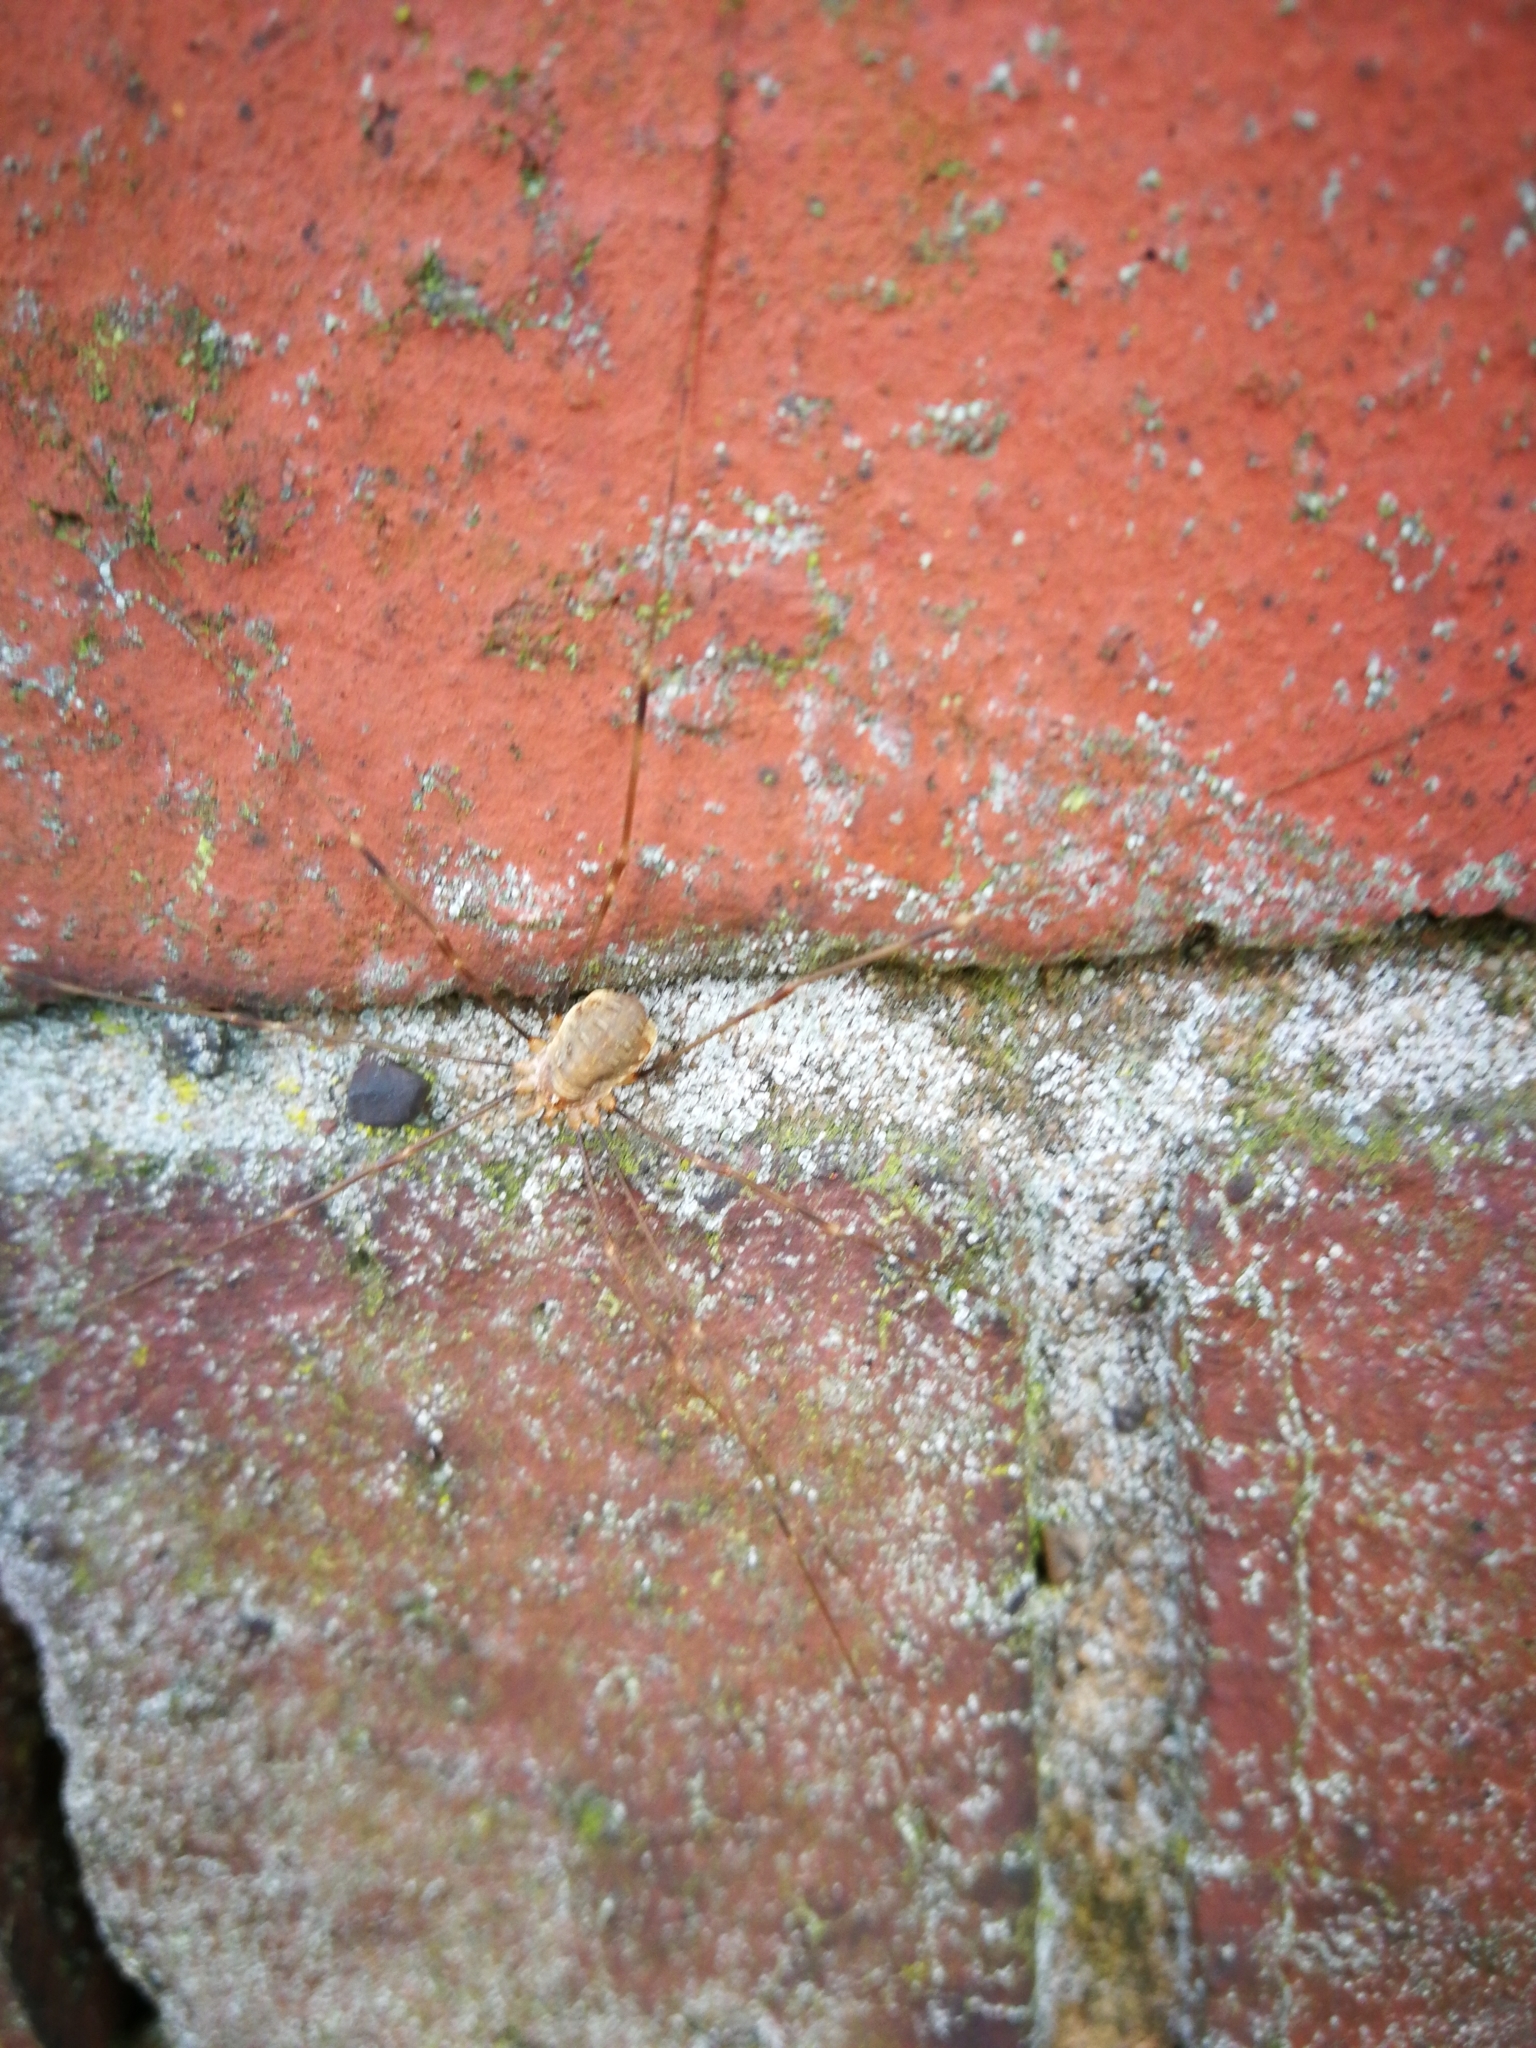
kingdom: Animalia
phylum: Arthropoda
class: Arachnida
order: Opiliones
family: Phalangiidae
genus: Opilio
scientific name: Opilio canestrinii
